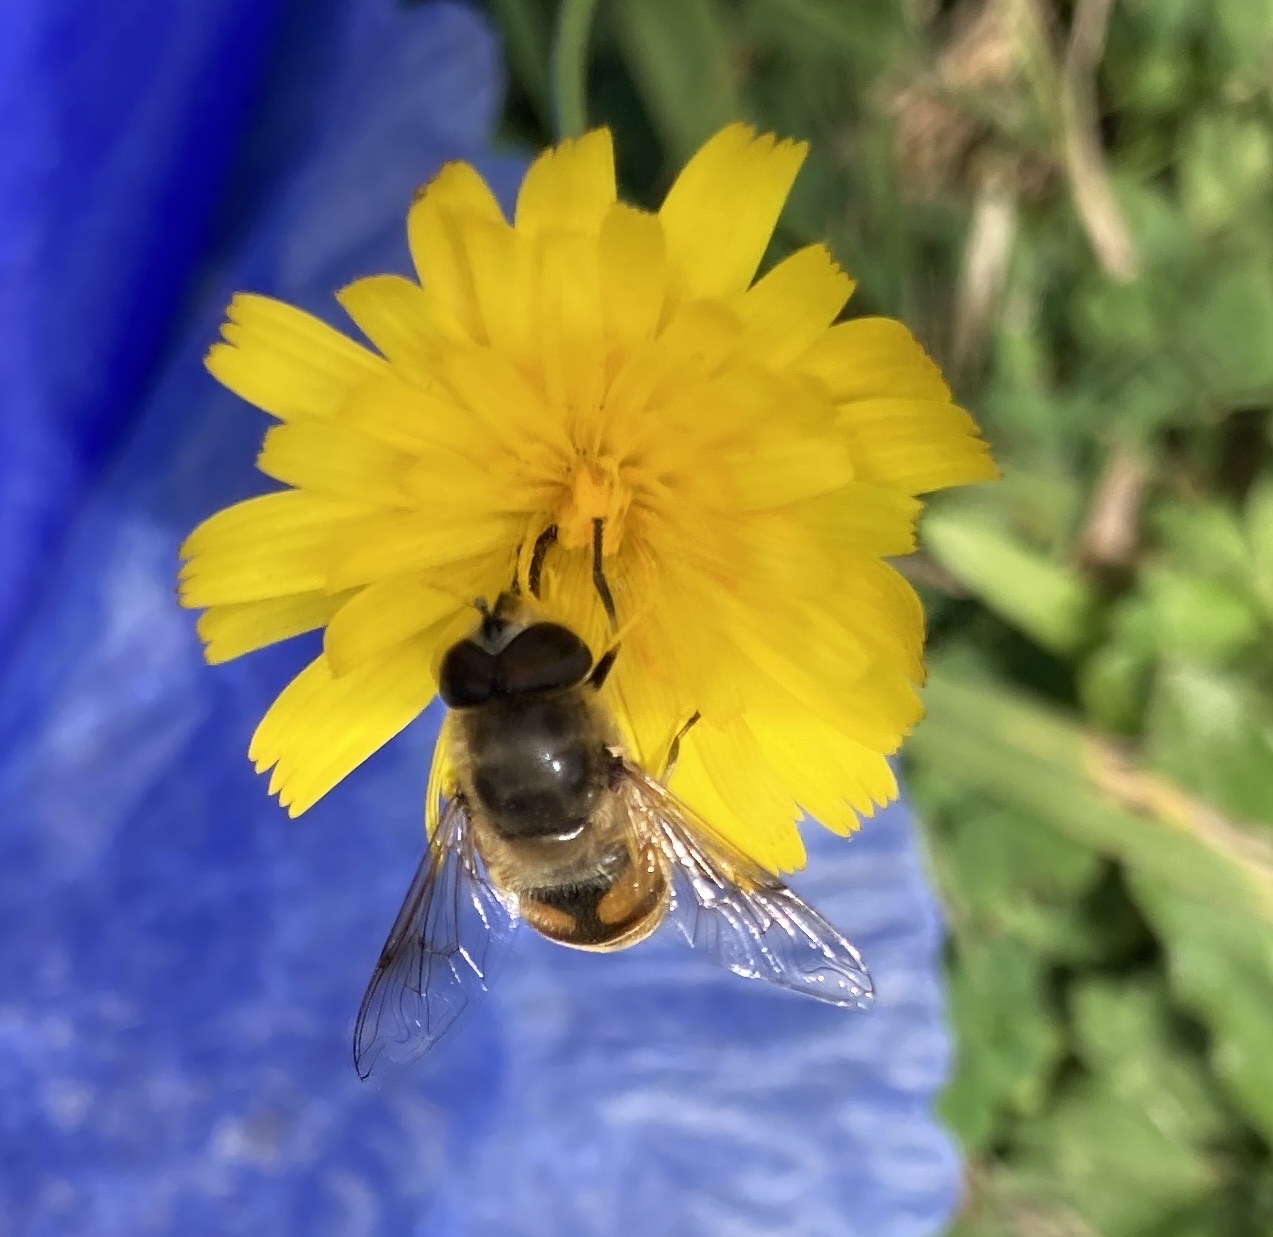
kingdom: Animalia
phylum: Arthropoda
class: Insecta
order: Diptera
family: Syrphidae
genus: Eristalis
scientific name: Eristalis tenax
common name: Drone fly
